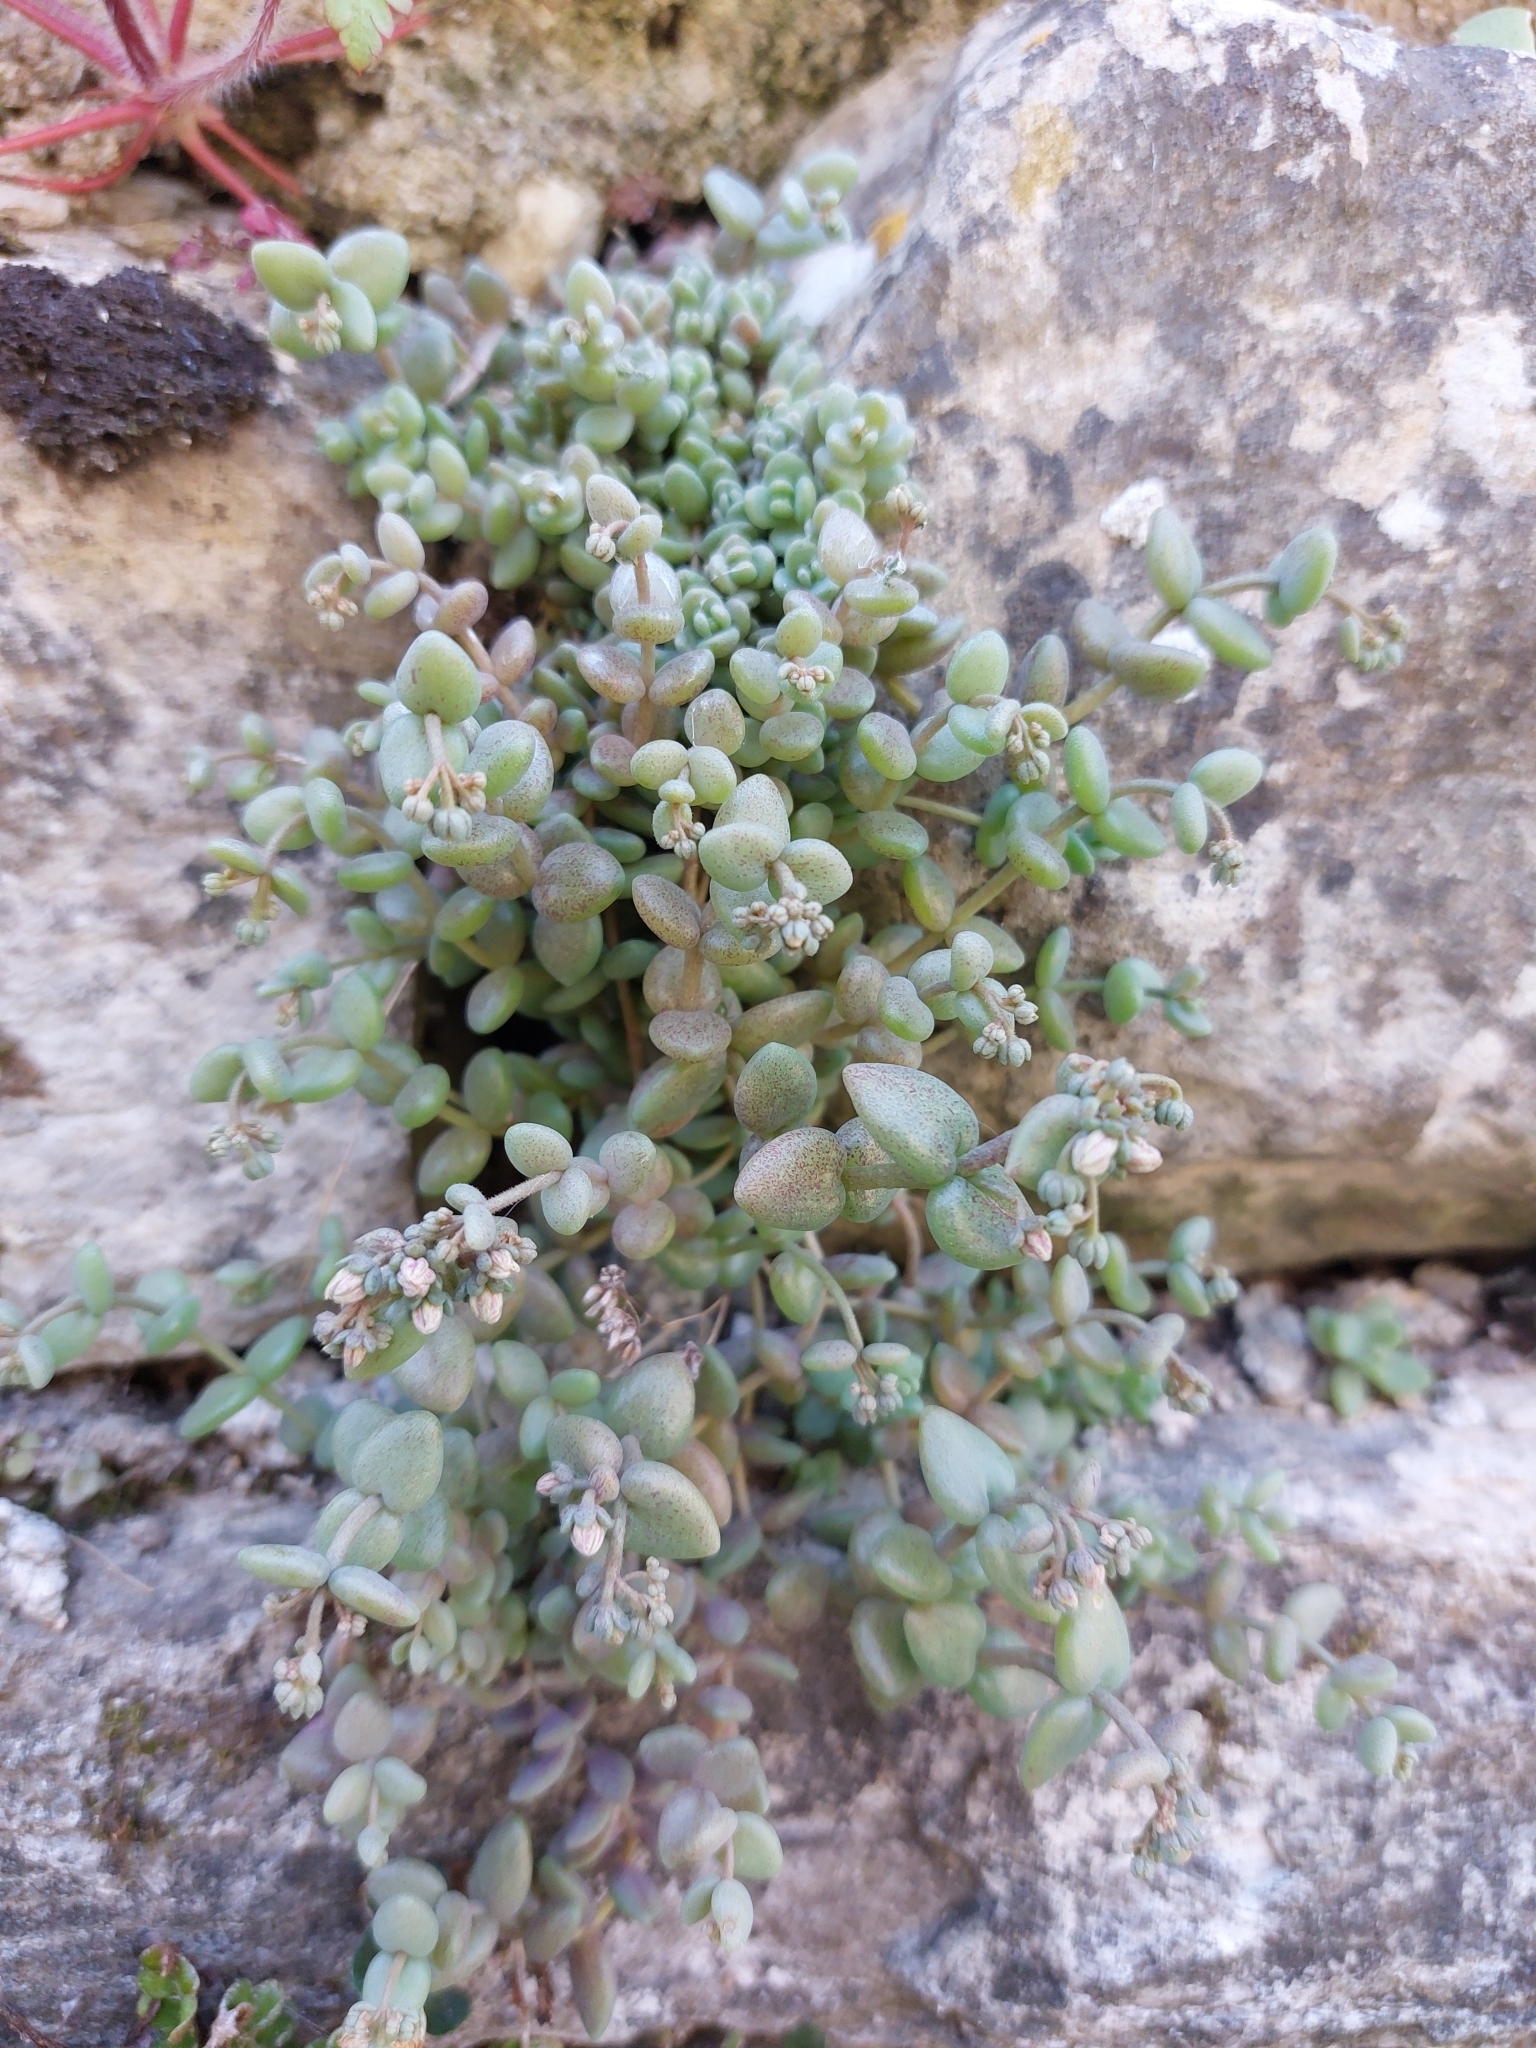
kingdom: Plantae
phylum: Tracheophyta
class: Magnoliopsida
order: Saxifragales
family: Crassulaceae
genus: Sedum
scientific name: Sedum dasyphyllum
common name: Thick-leaf stonecrop
